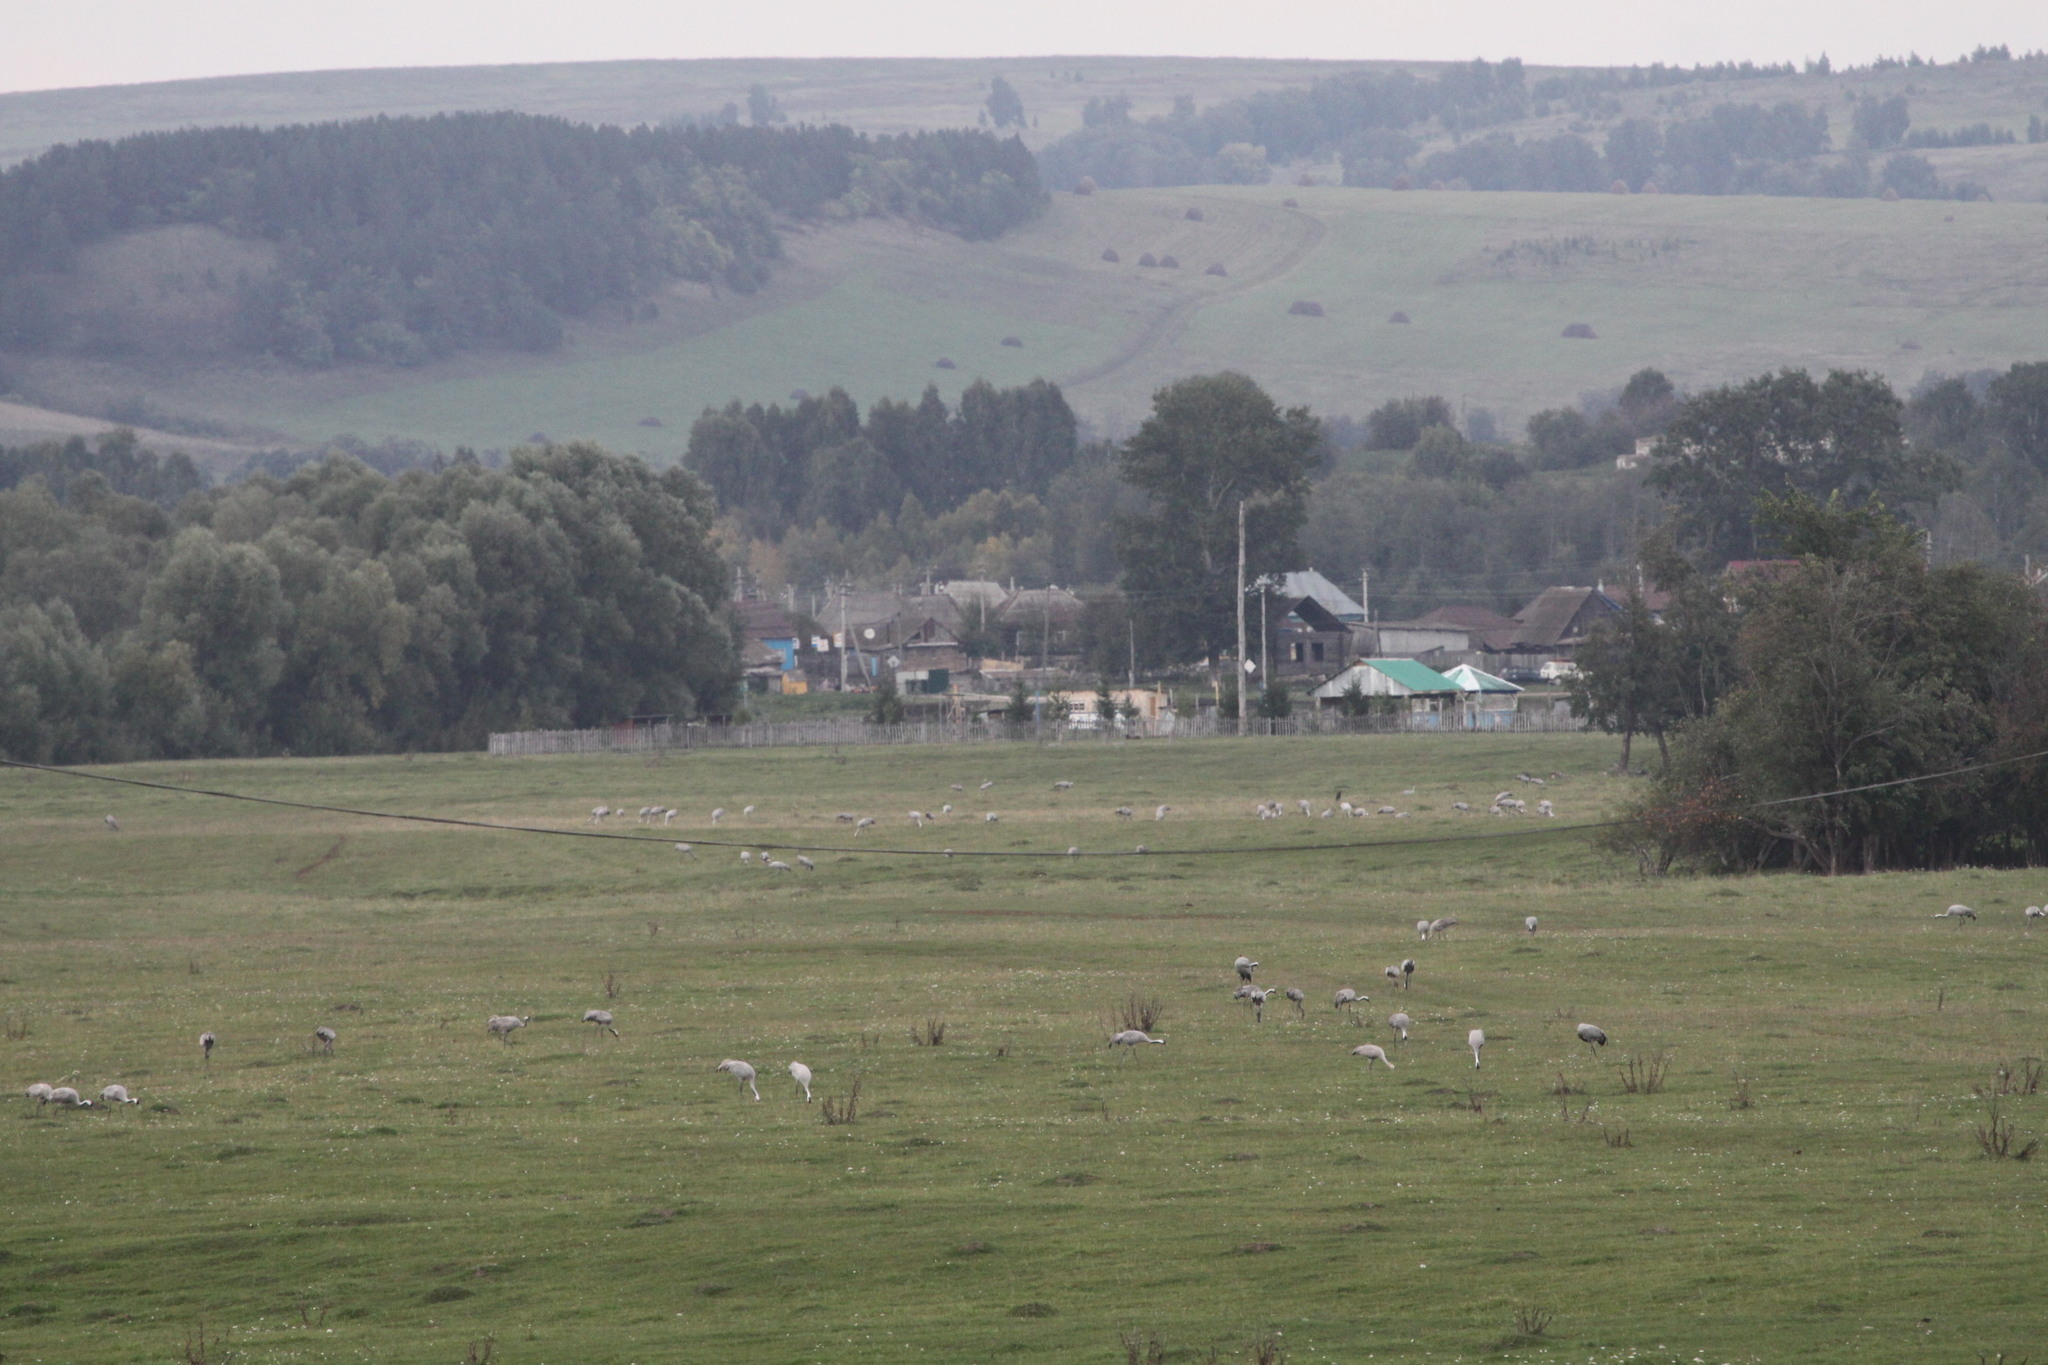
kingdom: Animalia
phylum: Chordata
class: Aves
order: Gruiformes
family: Gruidae
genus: Grus
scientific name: Grus grus
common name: Common crane
